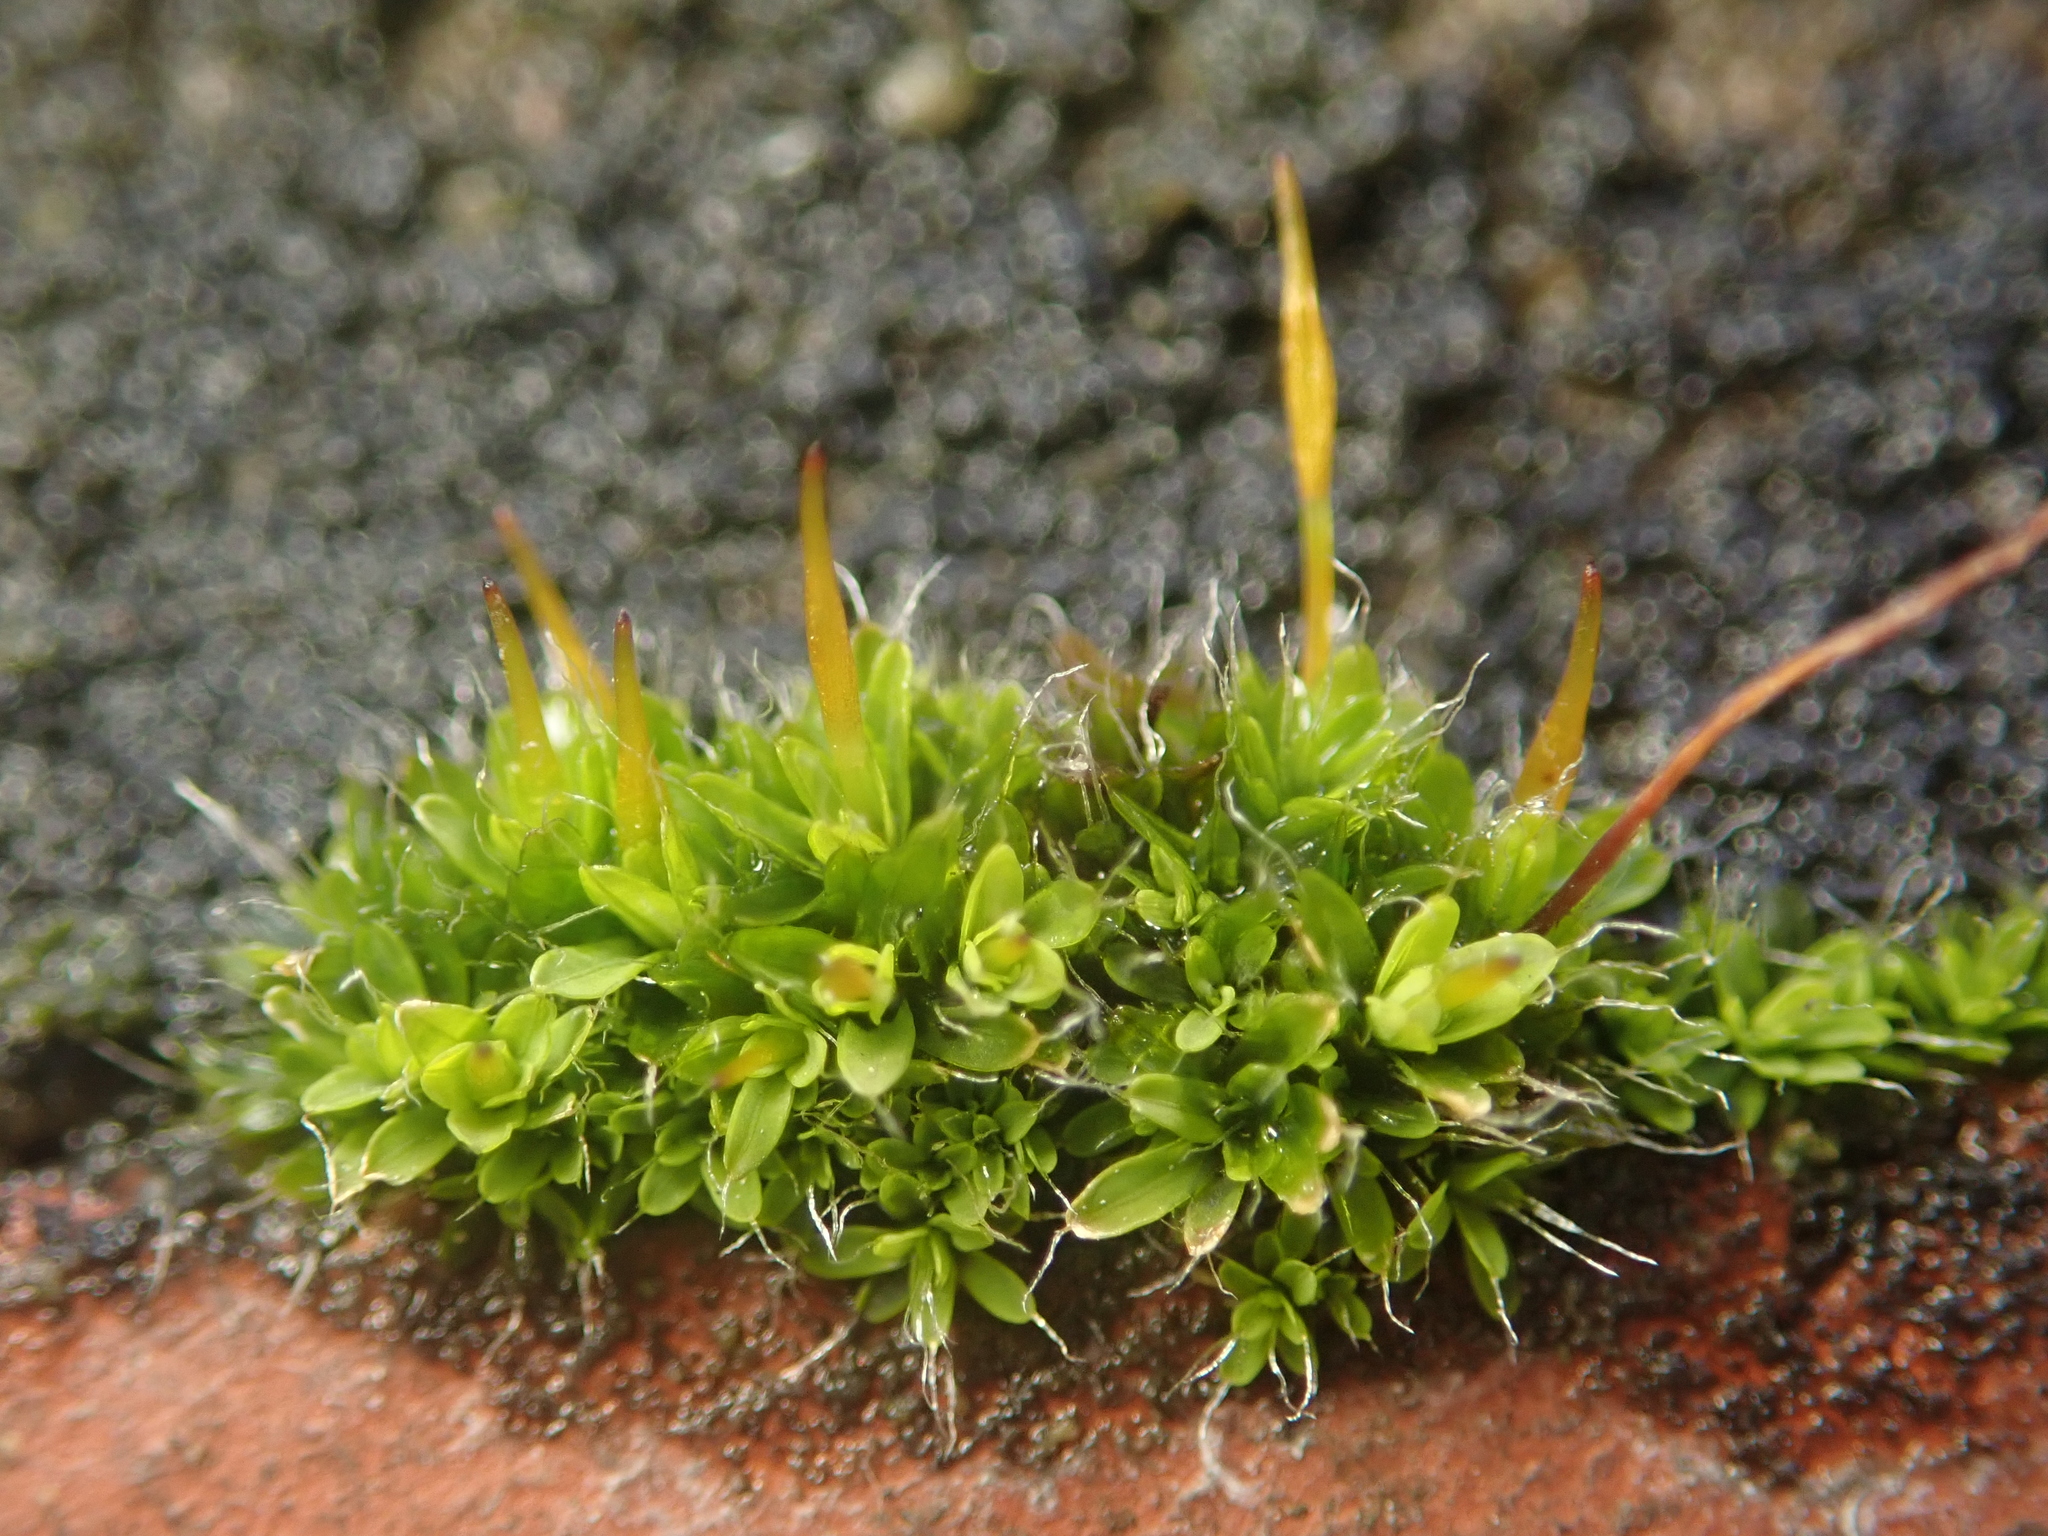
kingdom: Plantae
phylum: Bryophyta
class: Bryopsida
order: Pottiales
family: Pottiaceae
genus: Tortula
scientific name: Tortula muralis
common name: Wall screw-moss
